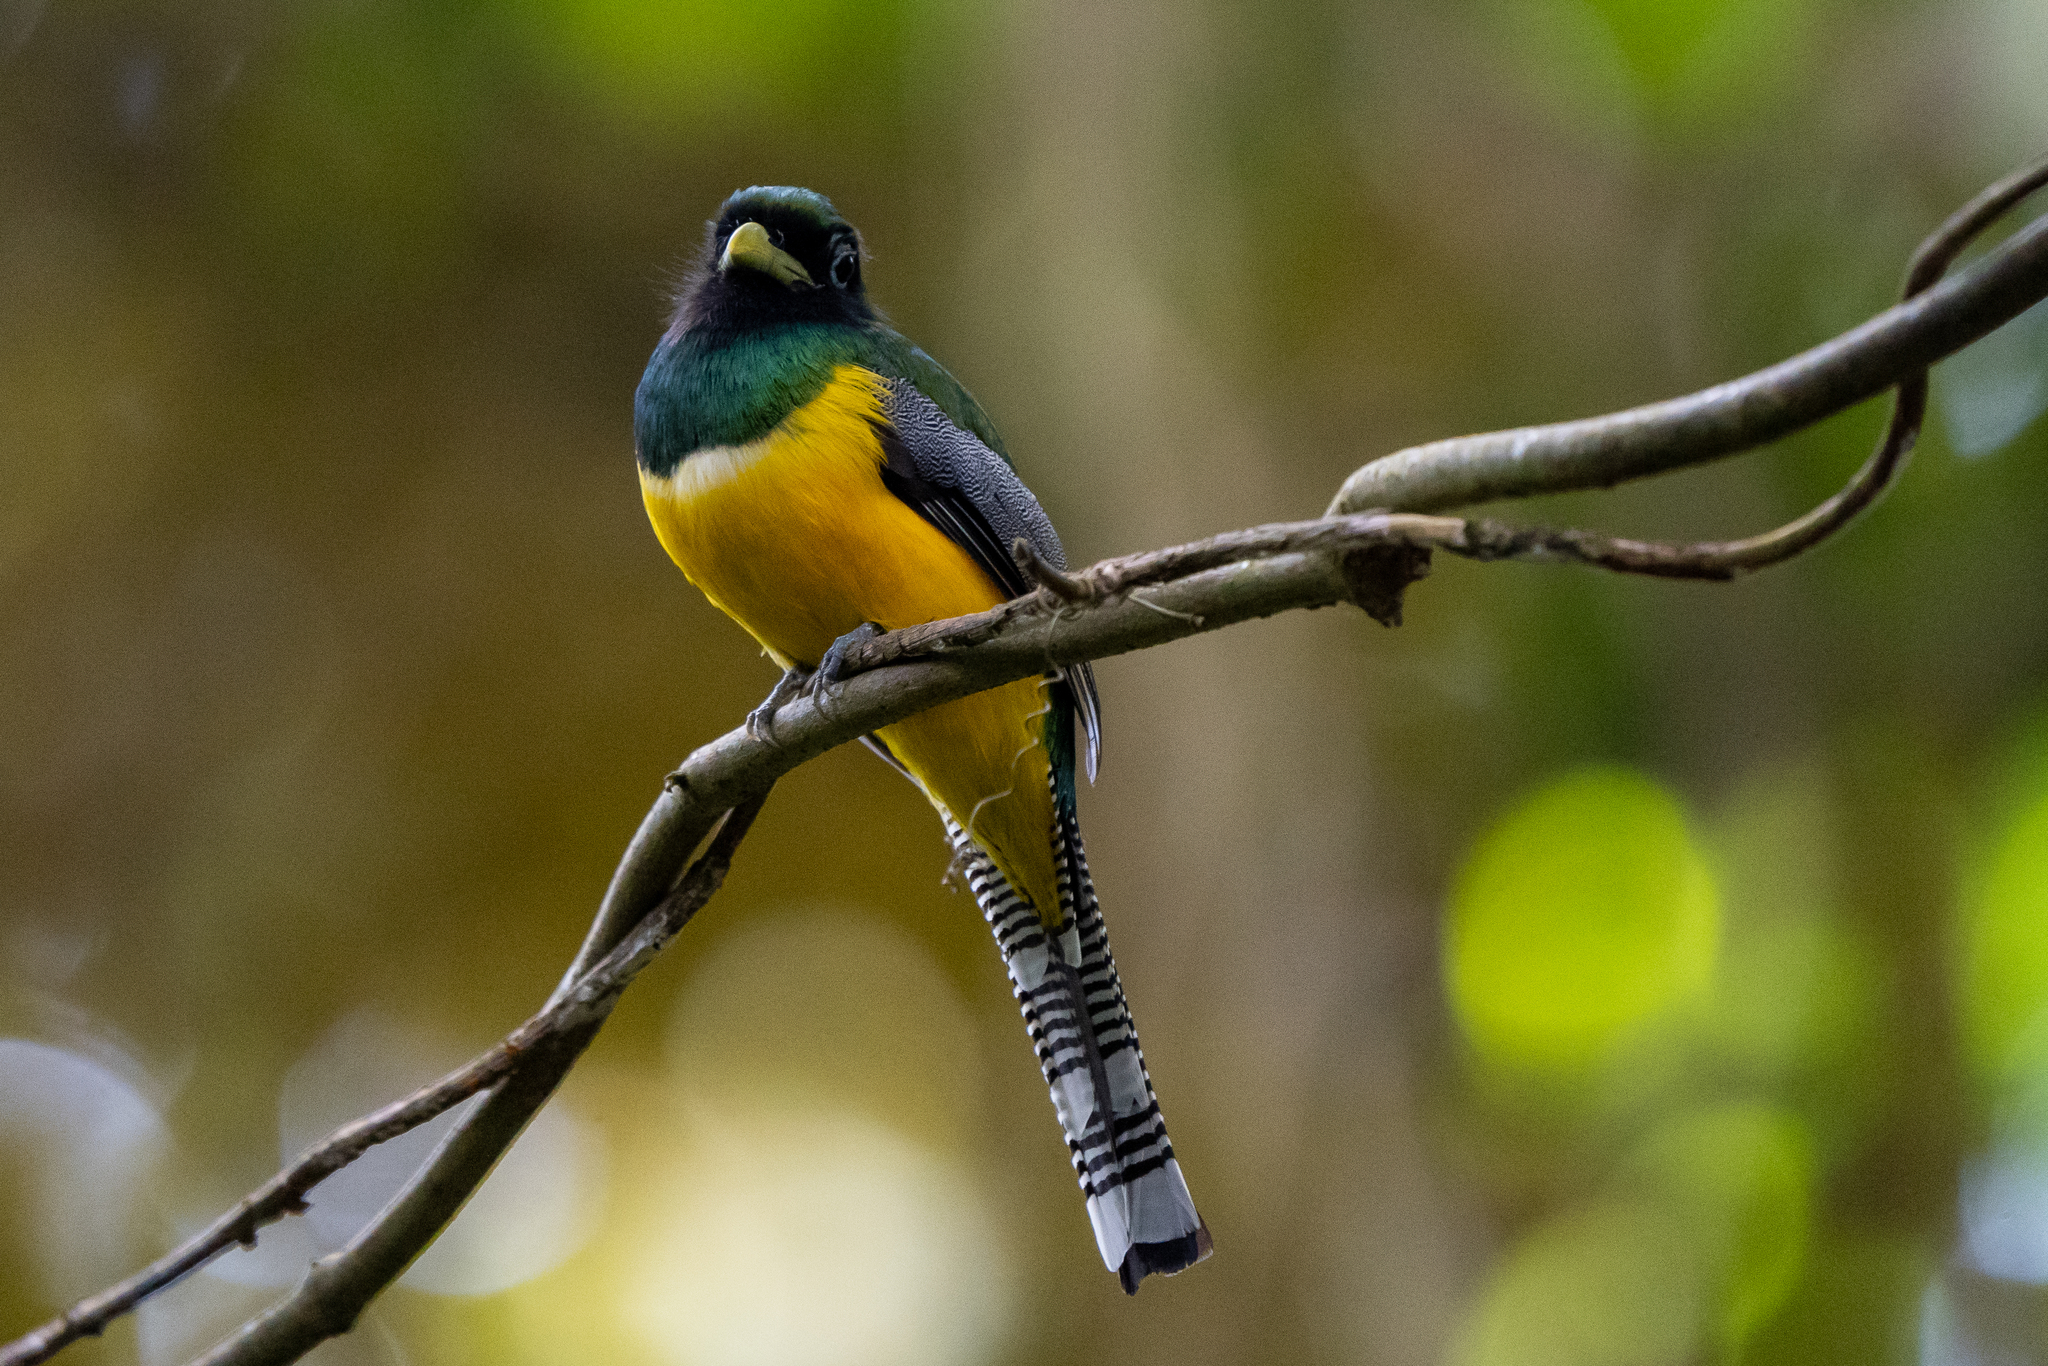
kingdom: Animalia
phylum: Chordata
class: Aves
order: Trogoniformes
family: Trogonidae
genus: Trogon
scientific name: Trogon rufus
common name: Black-throated trogon
